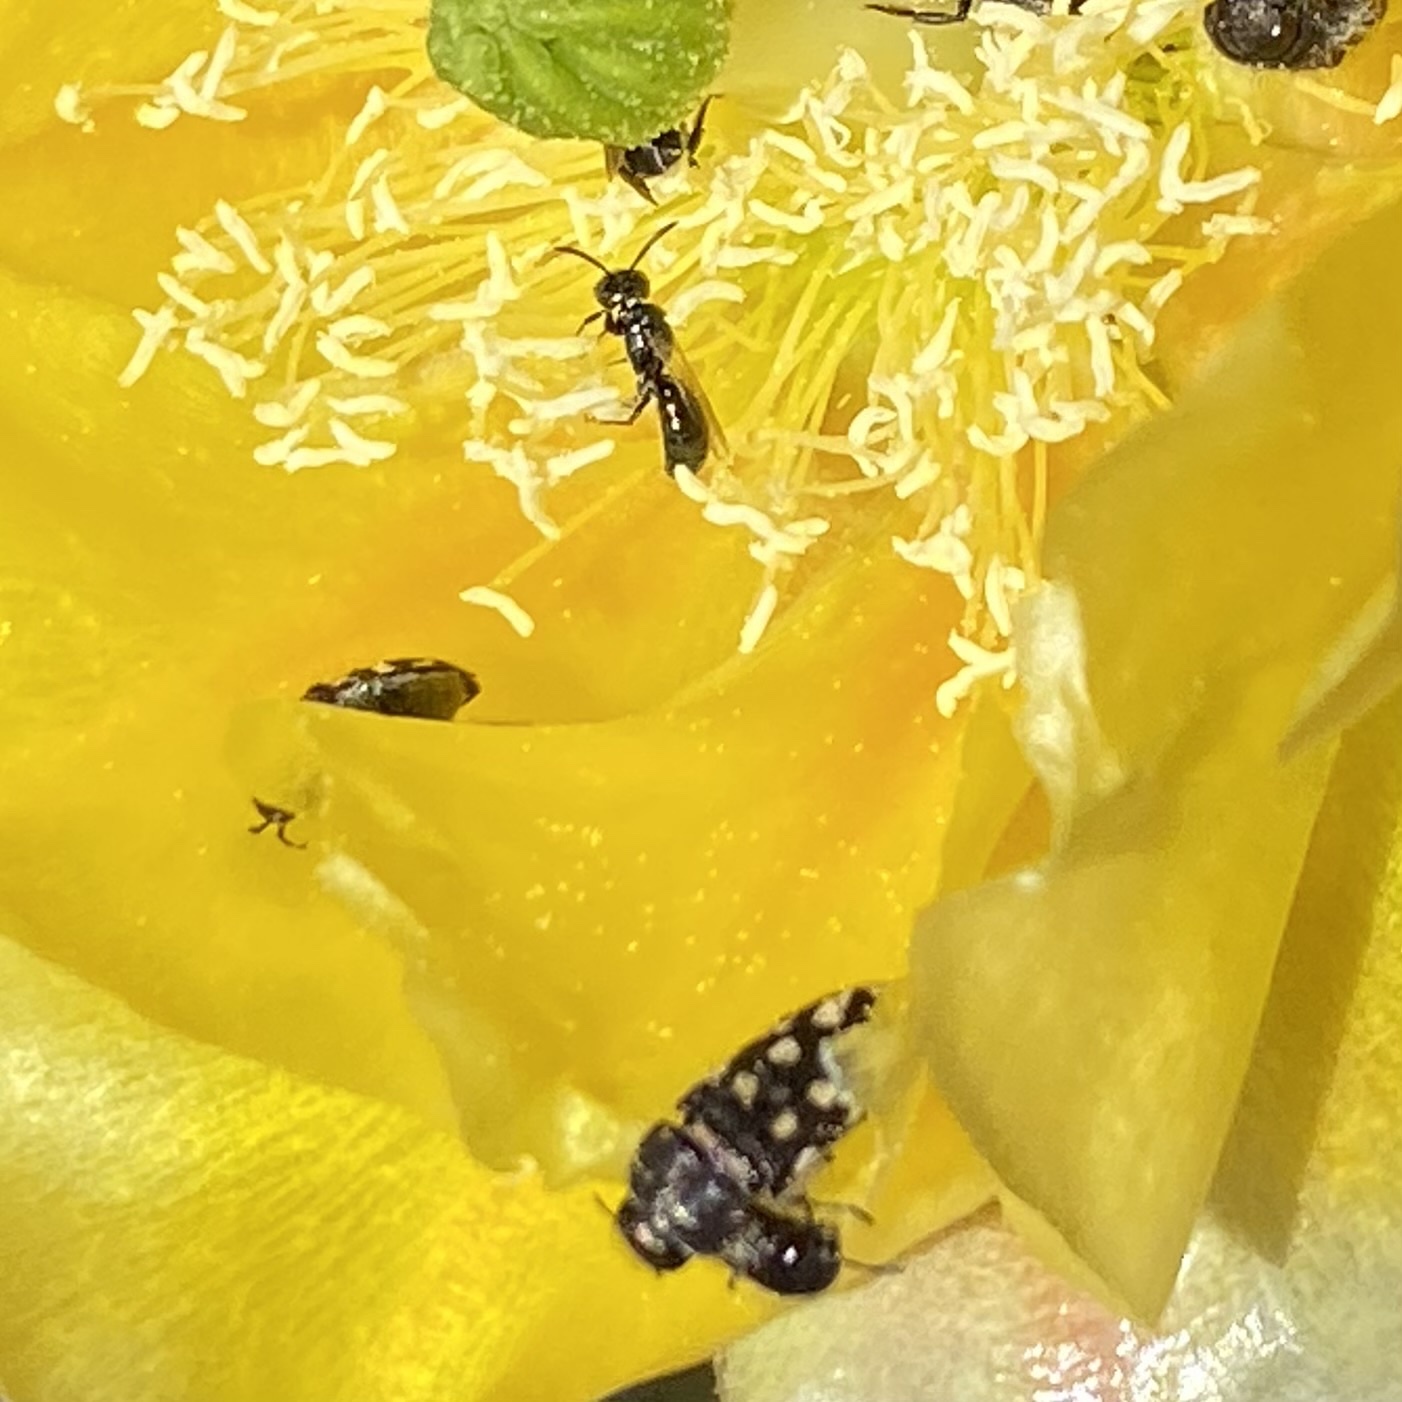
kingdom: Animalia
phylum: Arthropoda
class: Insecta
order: Hymenoptera
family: Apidae
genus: Zadontomerus
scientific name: Zadontomerus
